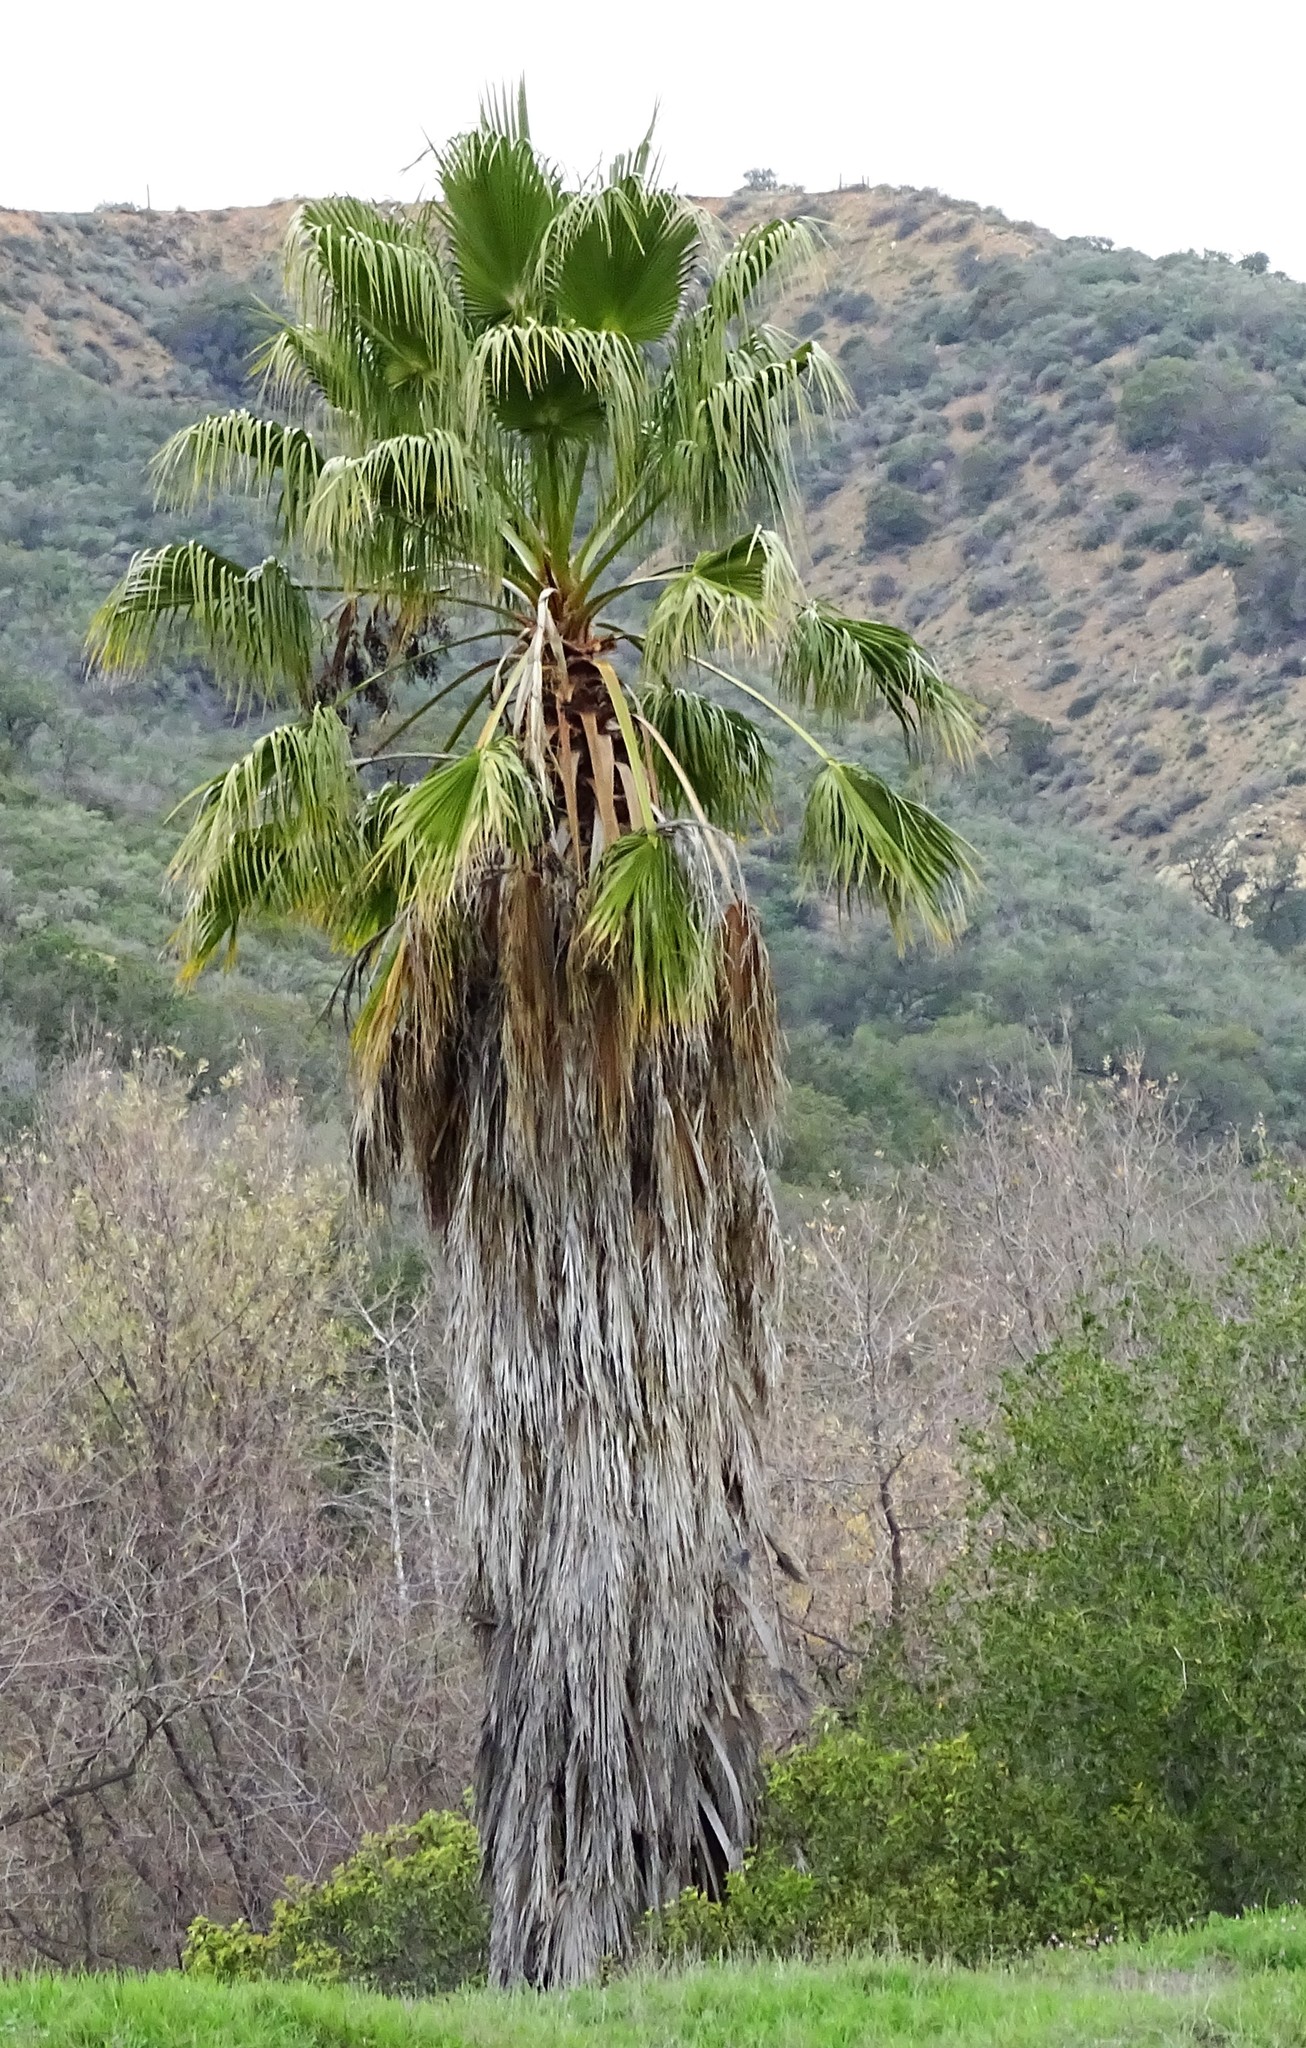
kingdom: Plantae
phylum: Tracheophyta
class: Liliopsida
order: Arecales
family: Arecaceae
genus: Washingtonia
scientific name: Washingtonia robusta
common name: Mexican fan palm
